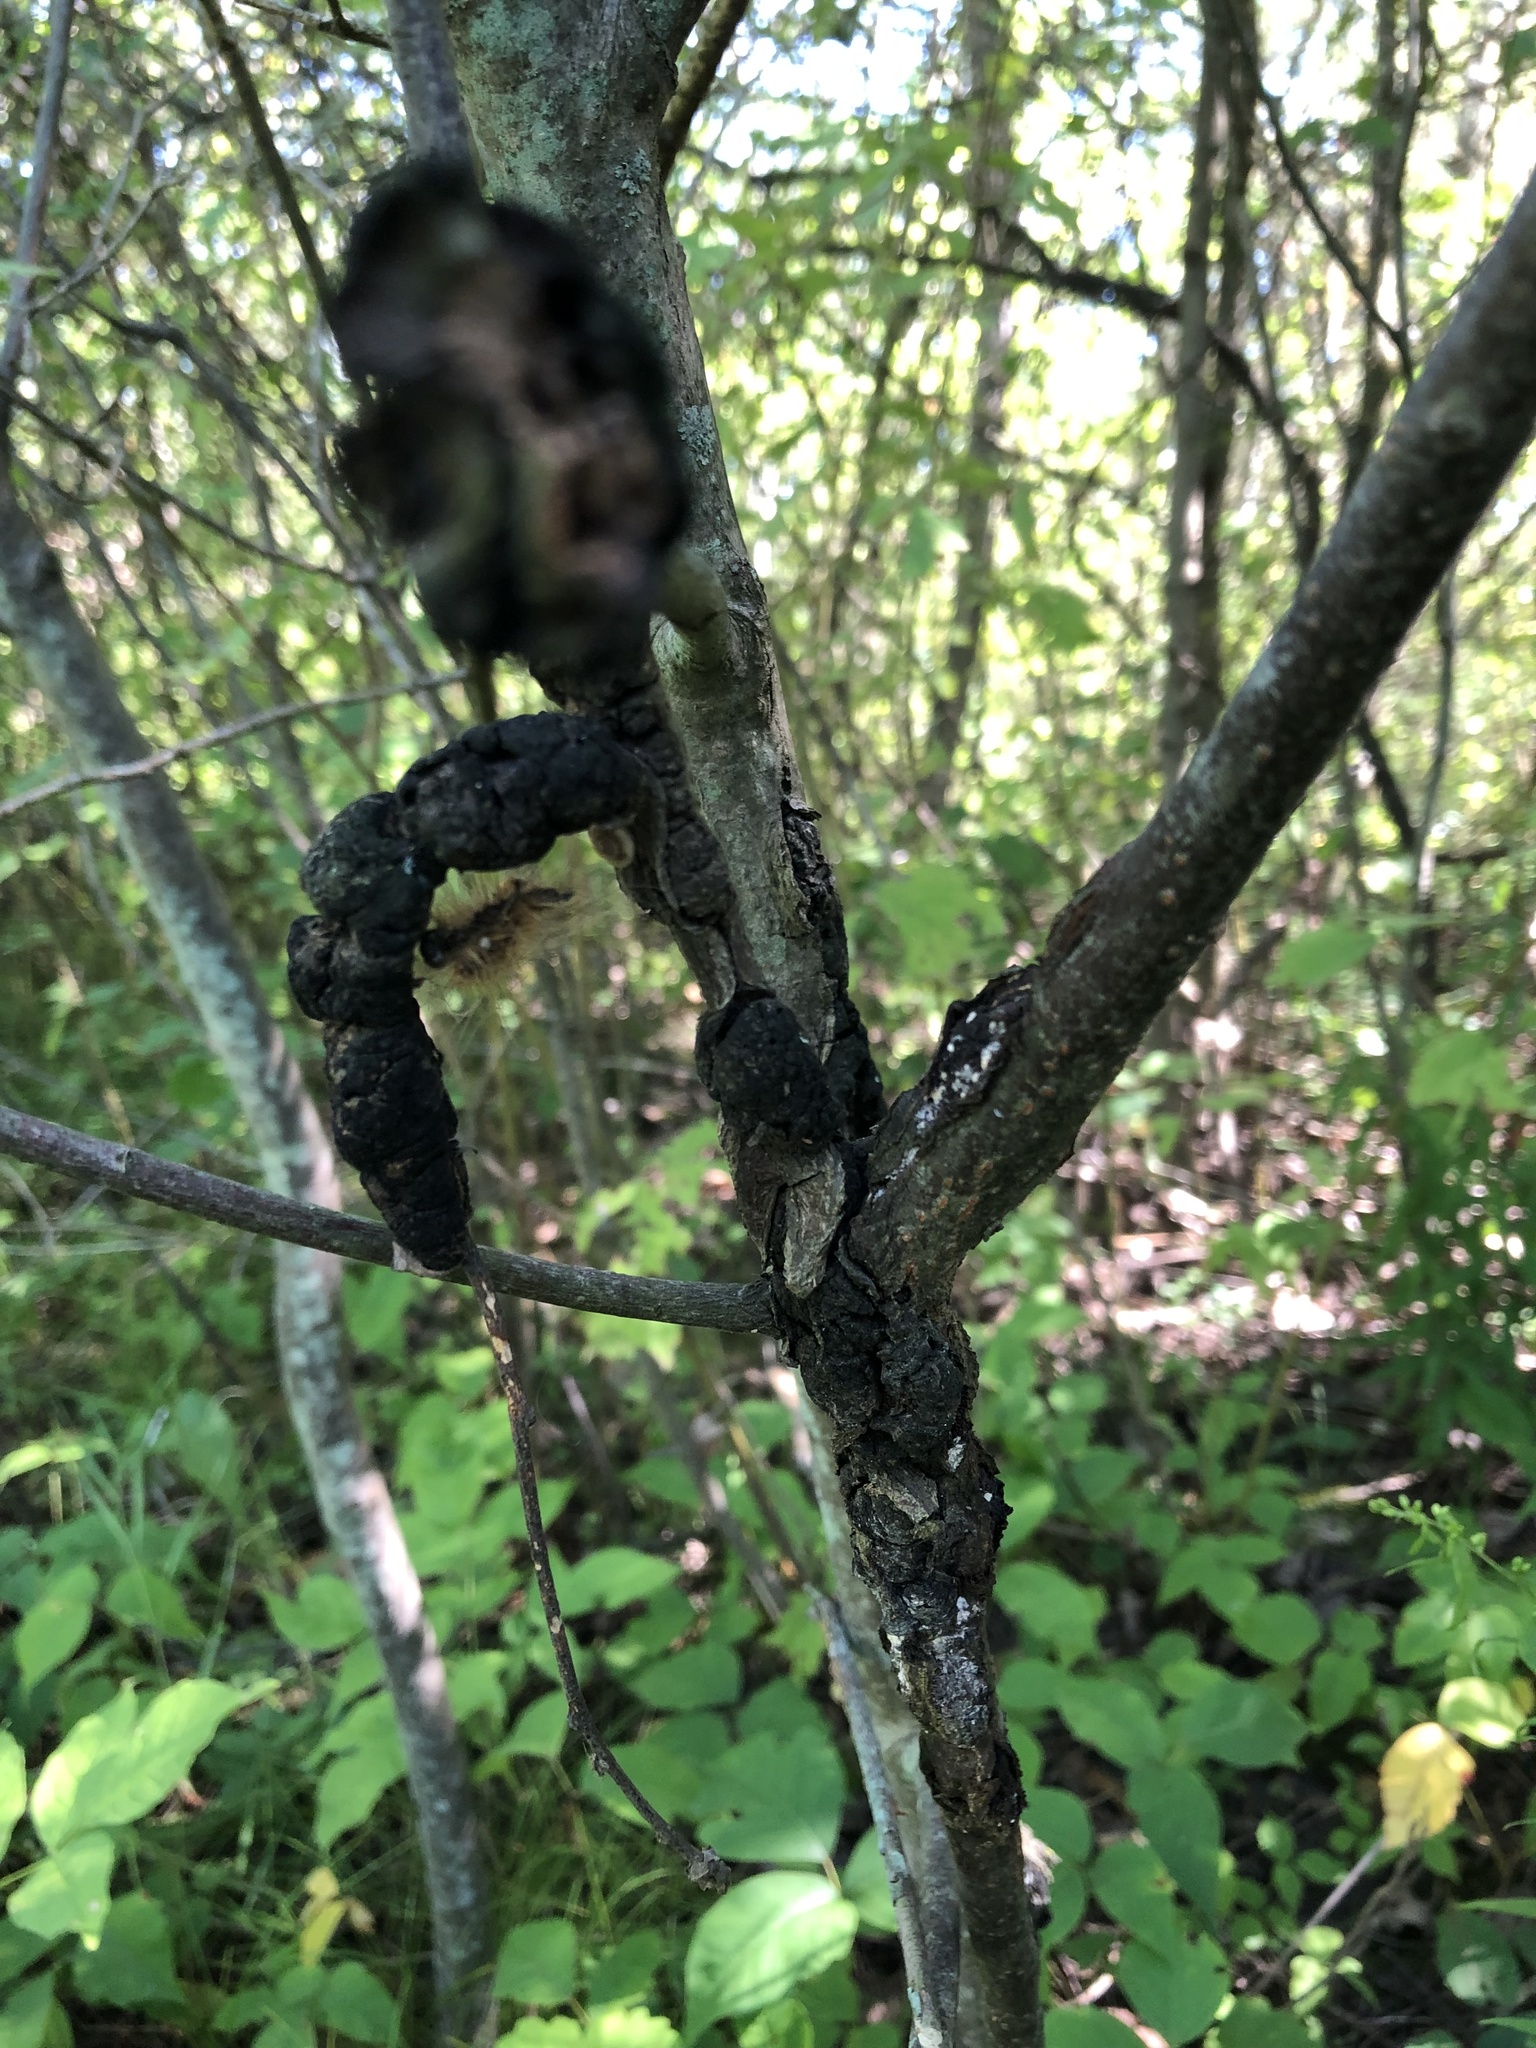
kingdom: Fungi
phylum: Ascomycota
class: Dothideomycetes
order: Venturiales
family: Venturiaceae
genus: Apiosporina
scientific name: Apiosporina morbosa
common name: Black knot
